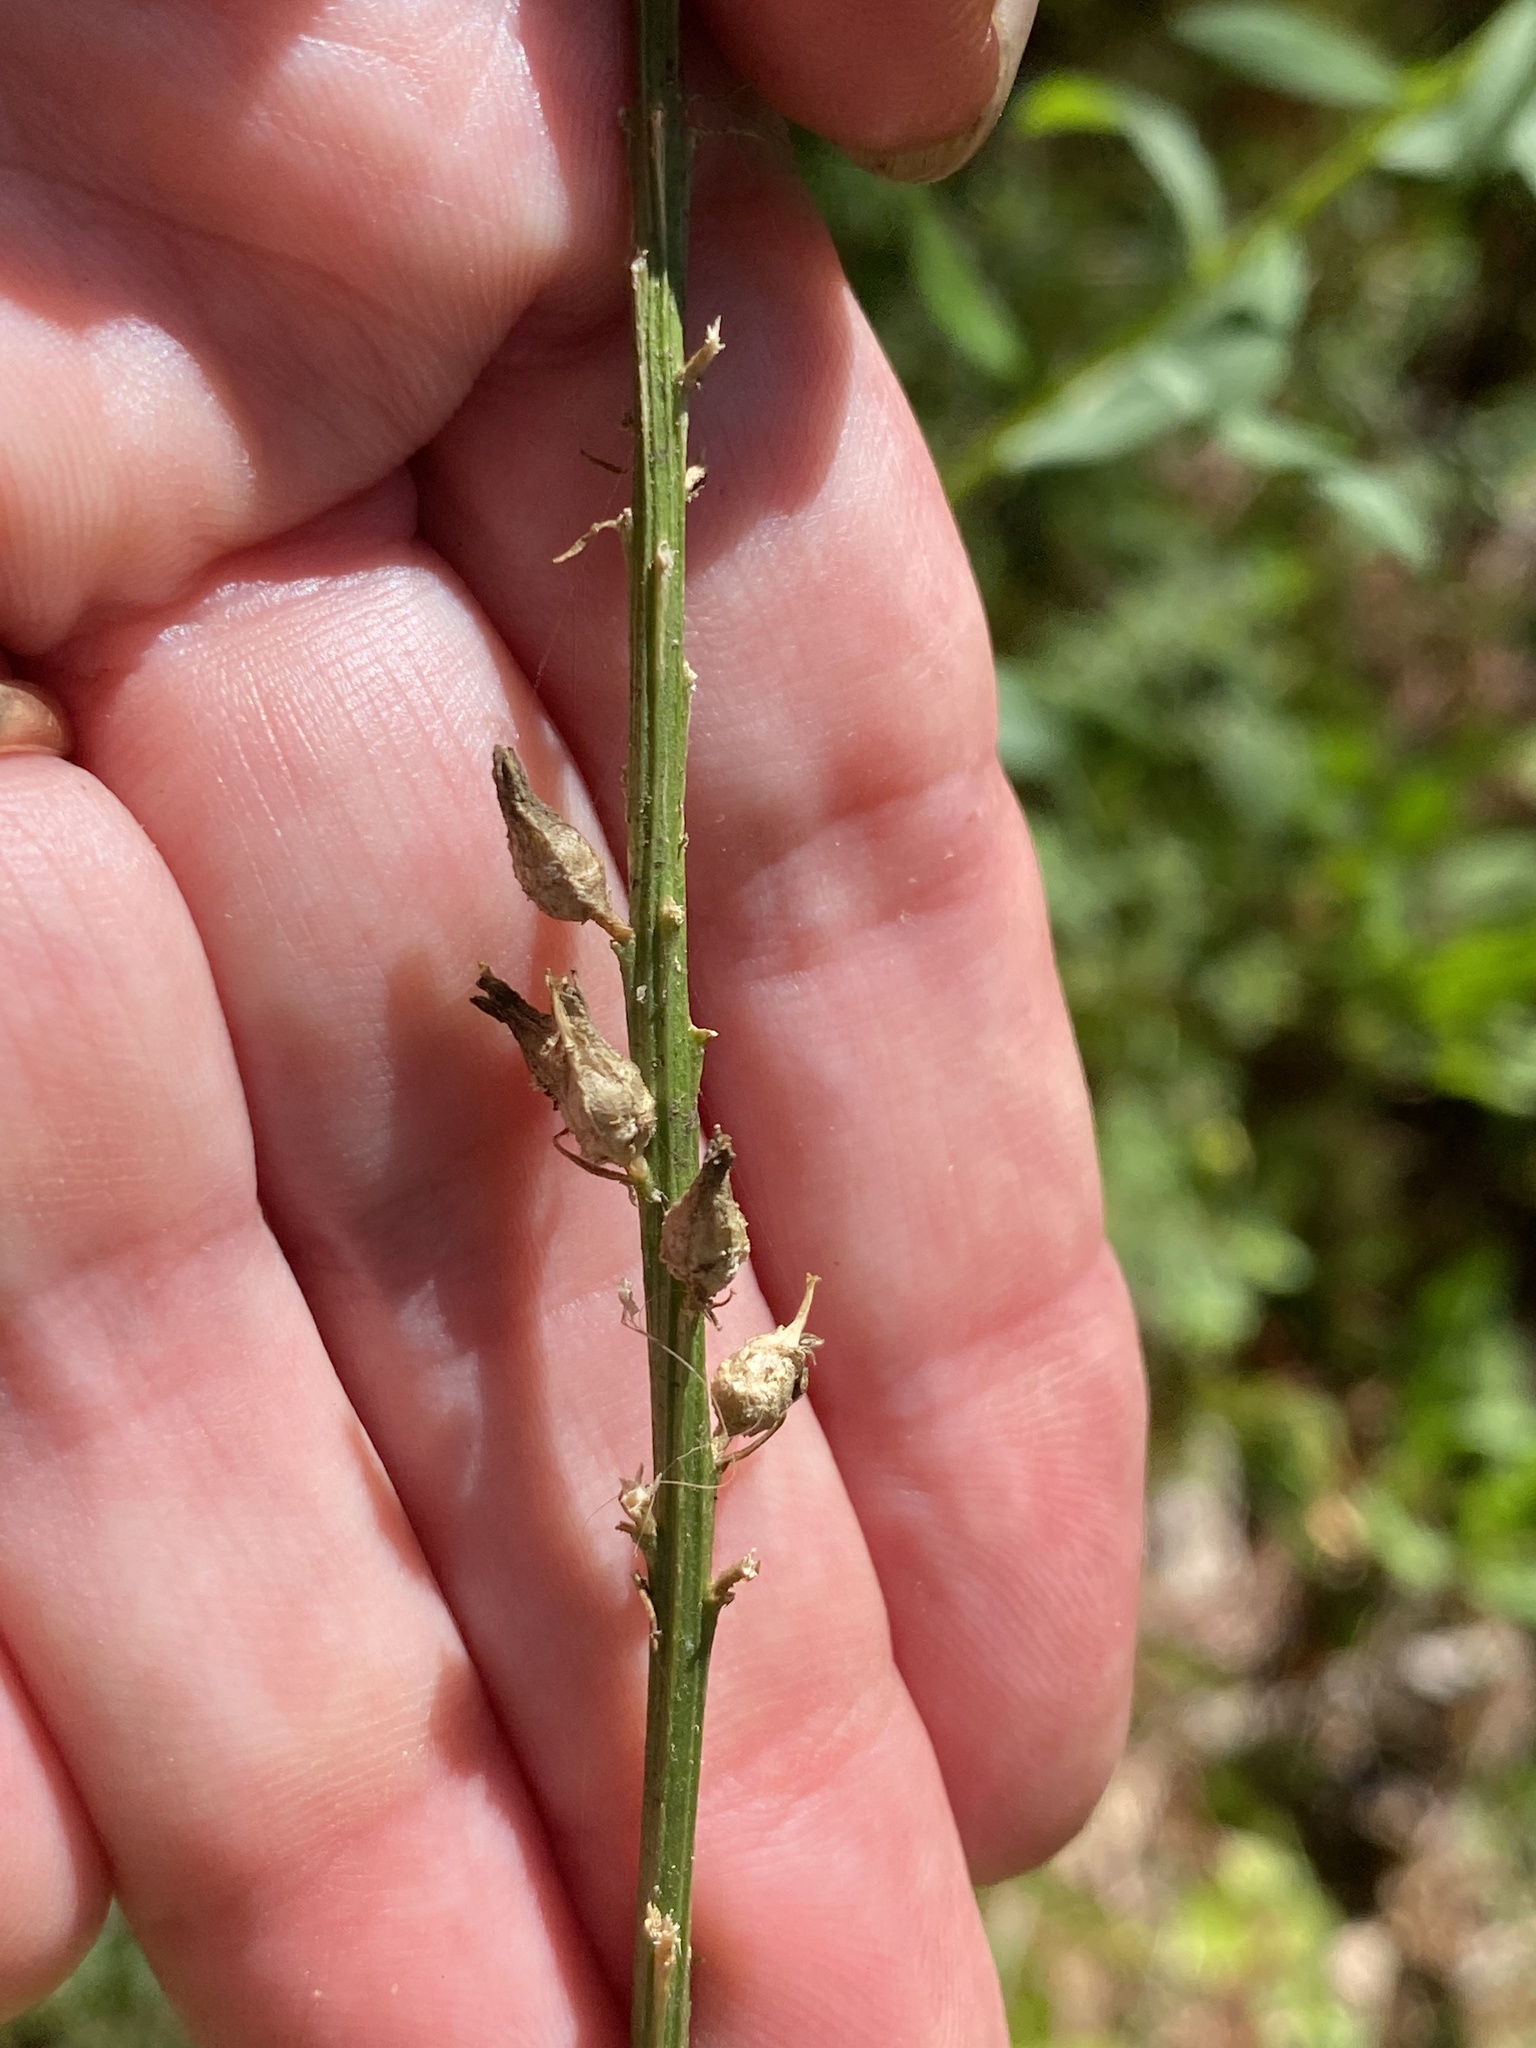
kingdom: Plantae
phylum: Tracheophyta
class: Liliopsida
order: Dioscoreales
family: Nartheciaceae
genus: Aletris
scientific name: Aletris farinosa
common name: Colicroot
